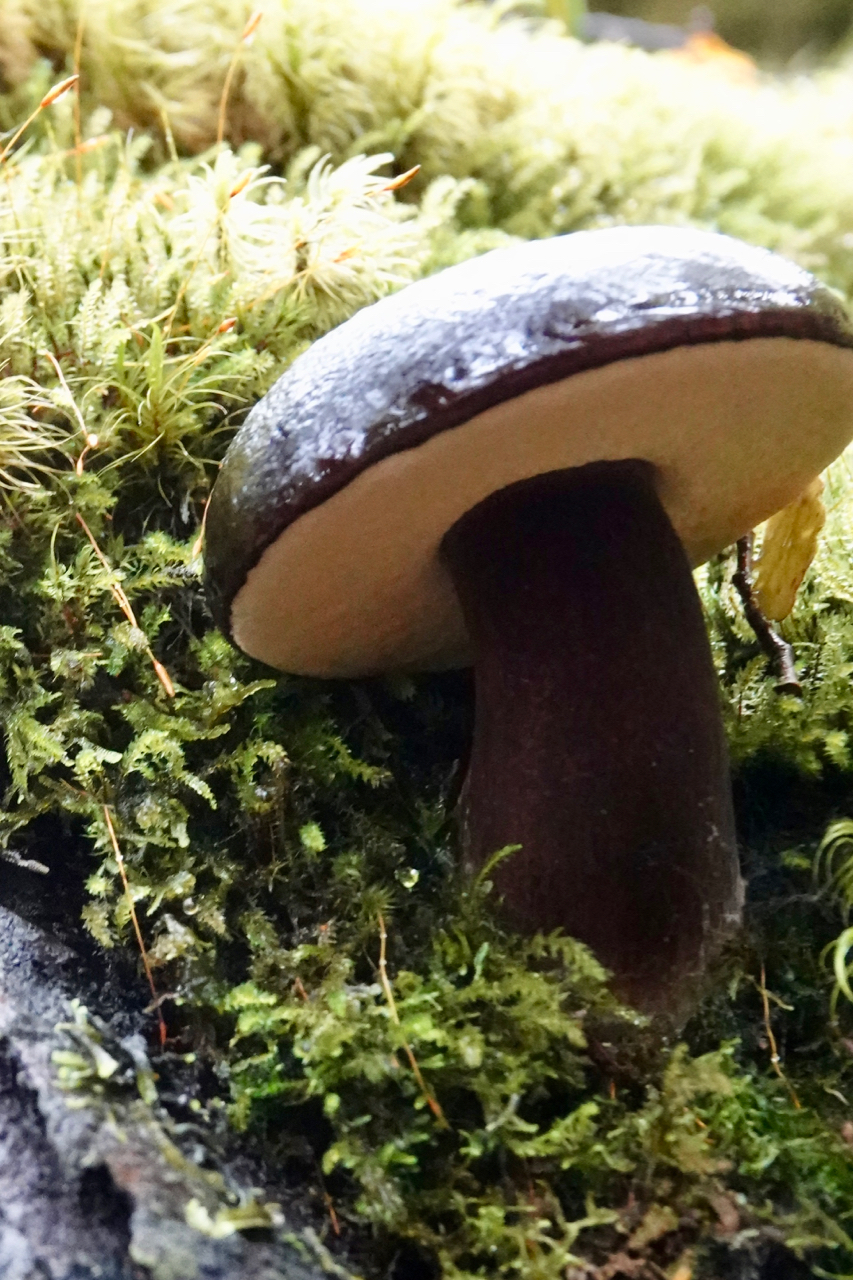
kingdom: Fungi
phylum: Basidiomycota
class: Agaricomycetes
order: Boletales
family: Boletaceae
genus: Porphyrellus
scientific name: Porphyrellus formosus
